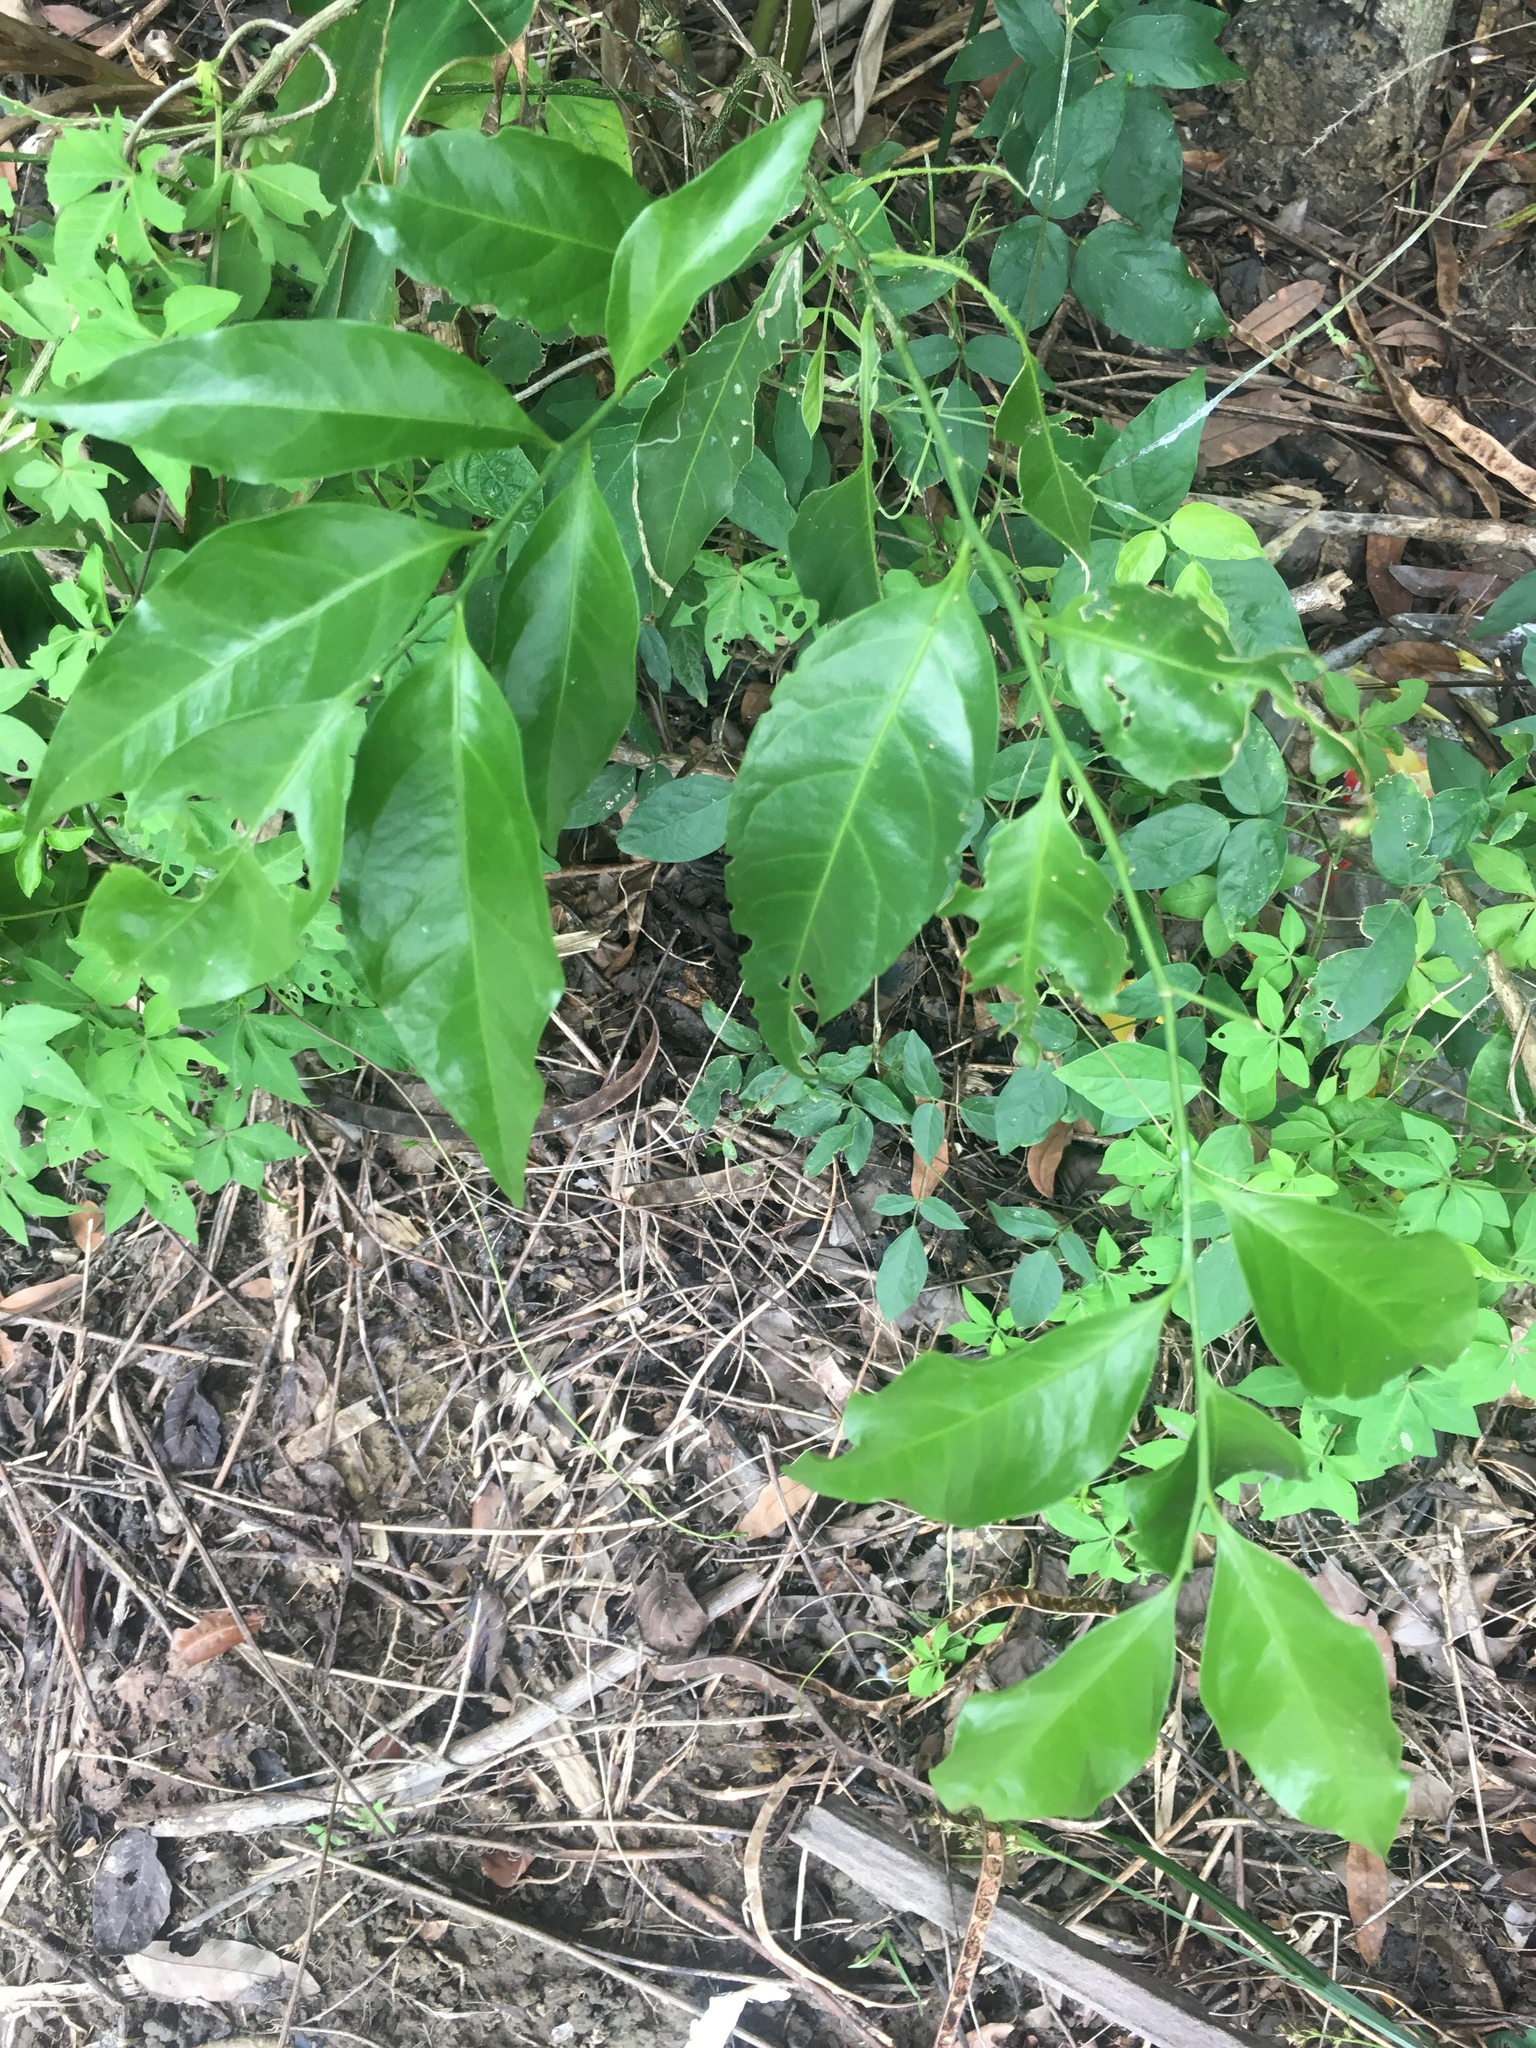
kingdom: Plantae
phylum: Tracheophyta
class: Magnoliopsida
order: Santalales
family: Opiliaceae
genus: Champereia
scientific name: Champereia manillana
